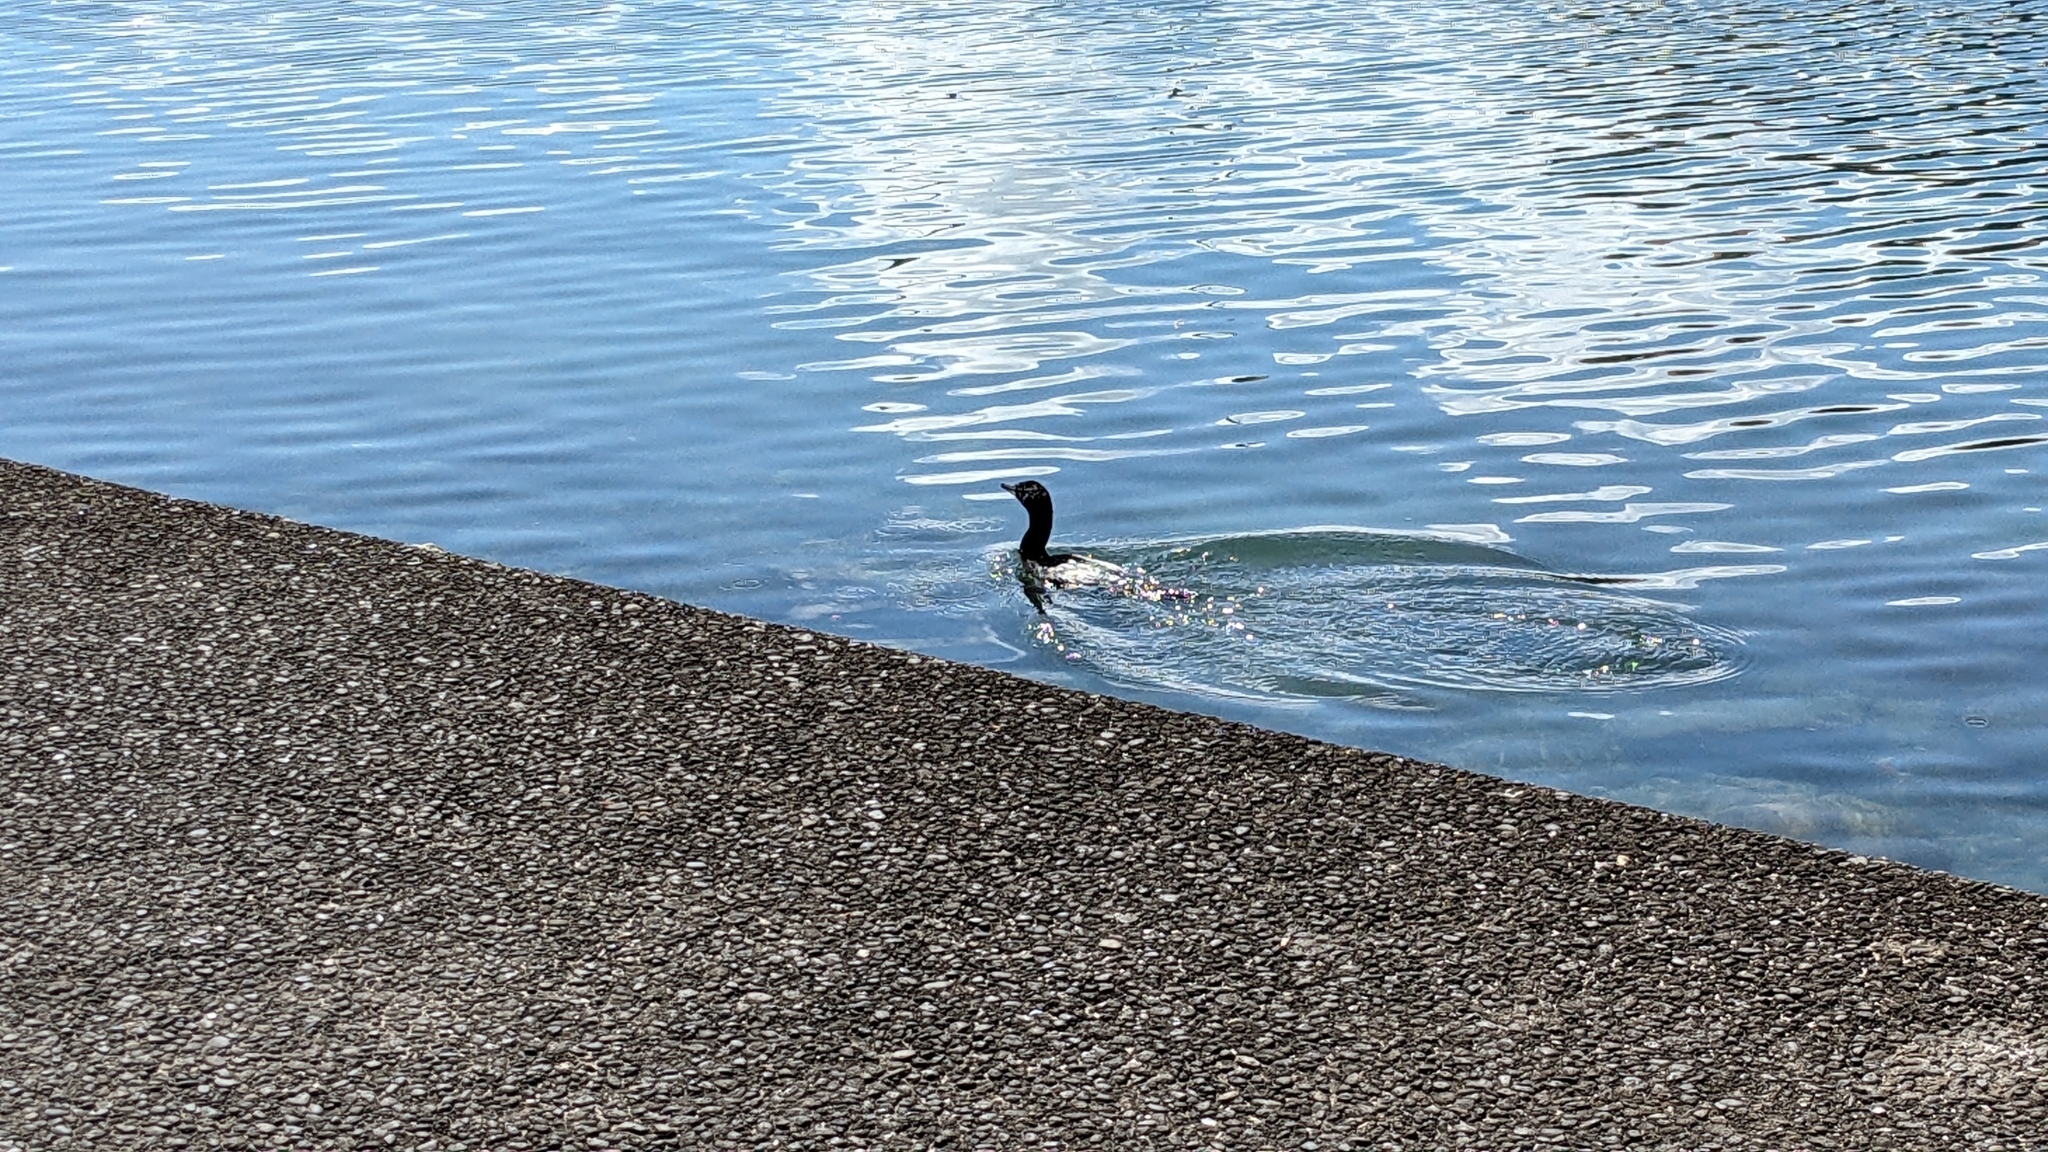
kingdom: Animalia
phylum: Chordata
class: Aves
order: Suliformes
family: Phalacrocoracidae
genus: Phalacrocorax
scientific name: Phalacrocorax sulcirostris
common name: Little black cormorant
